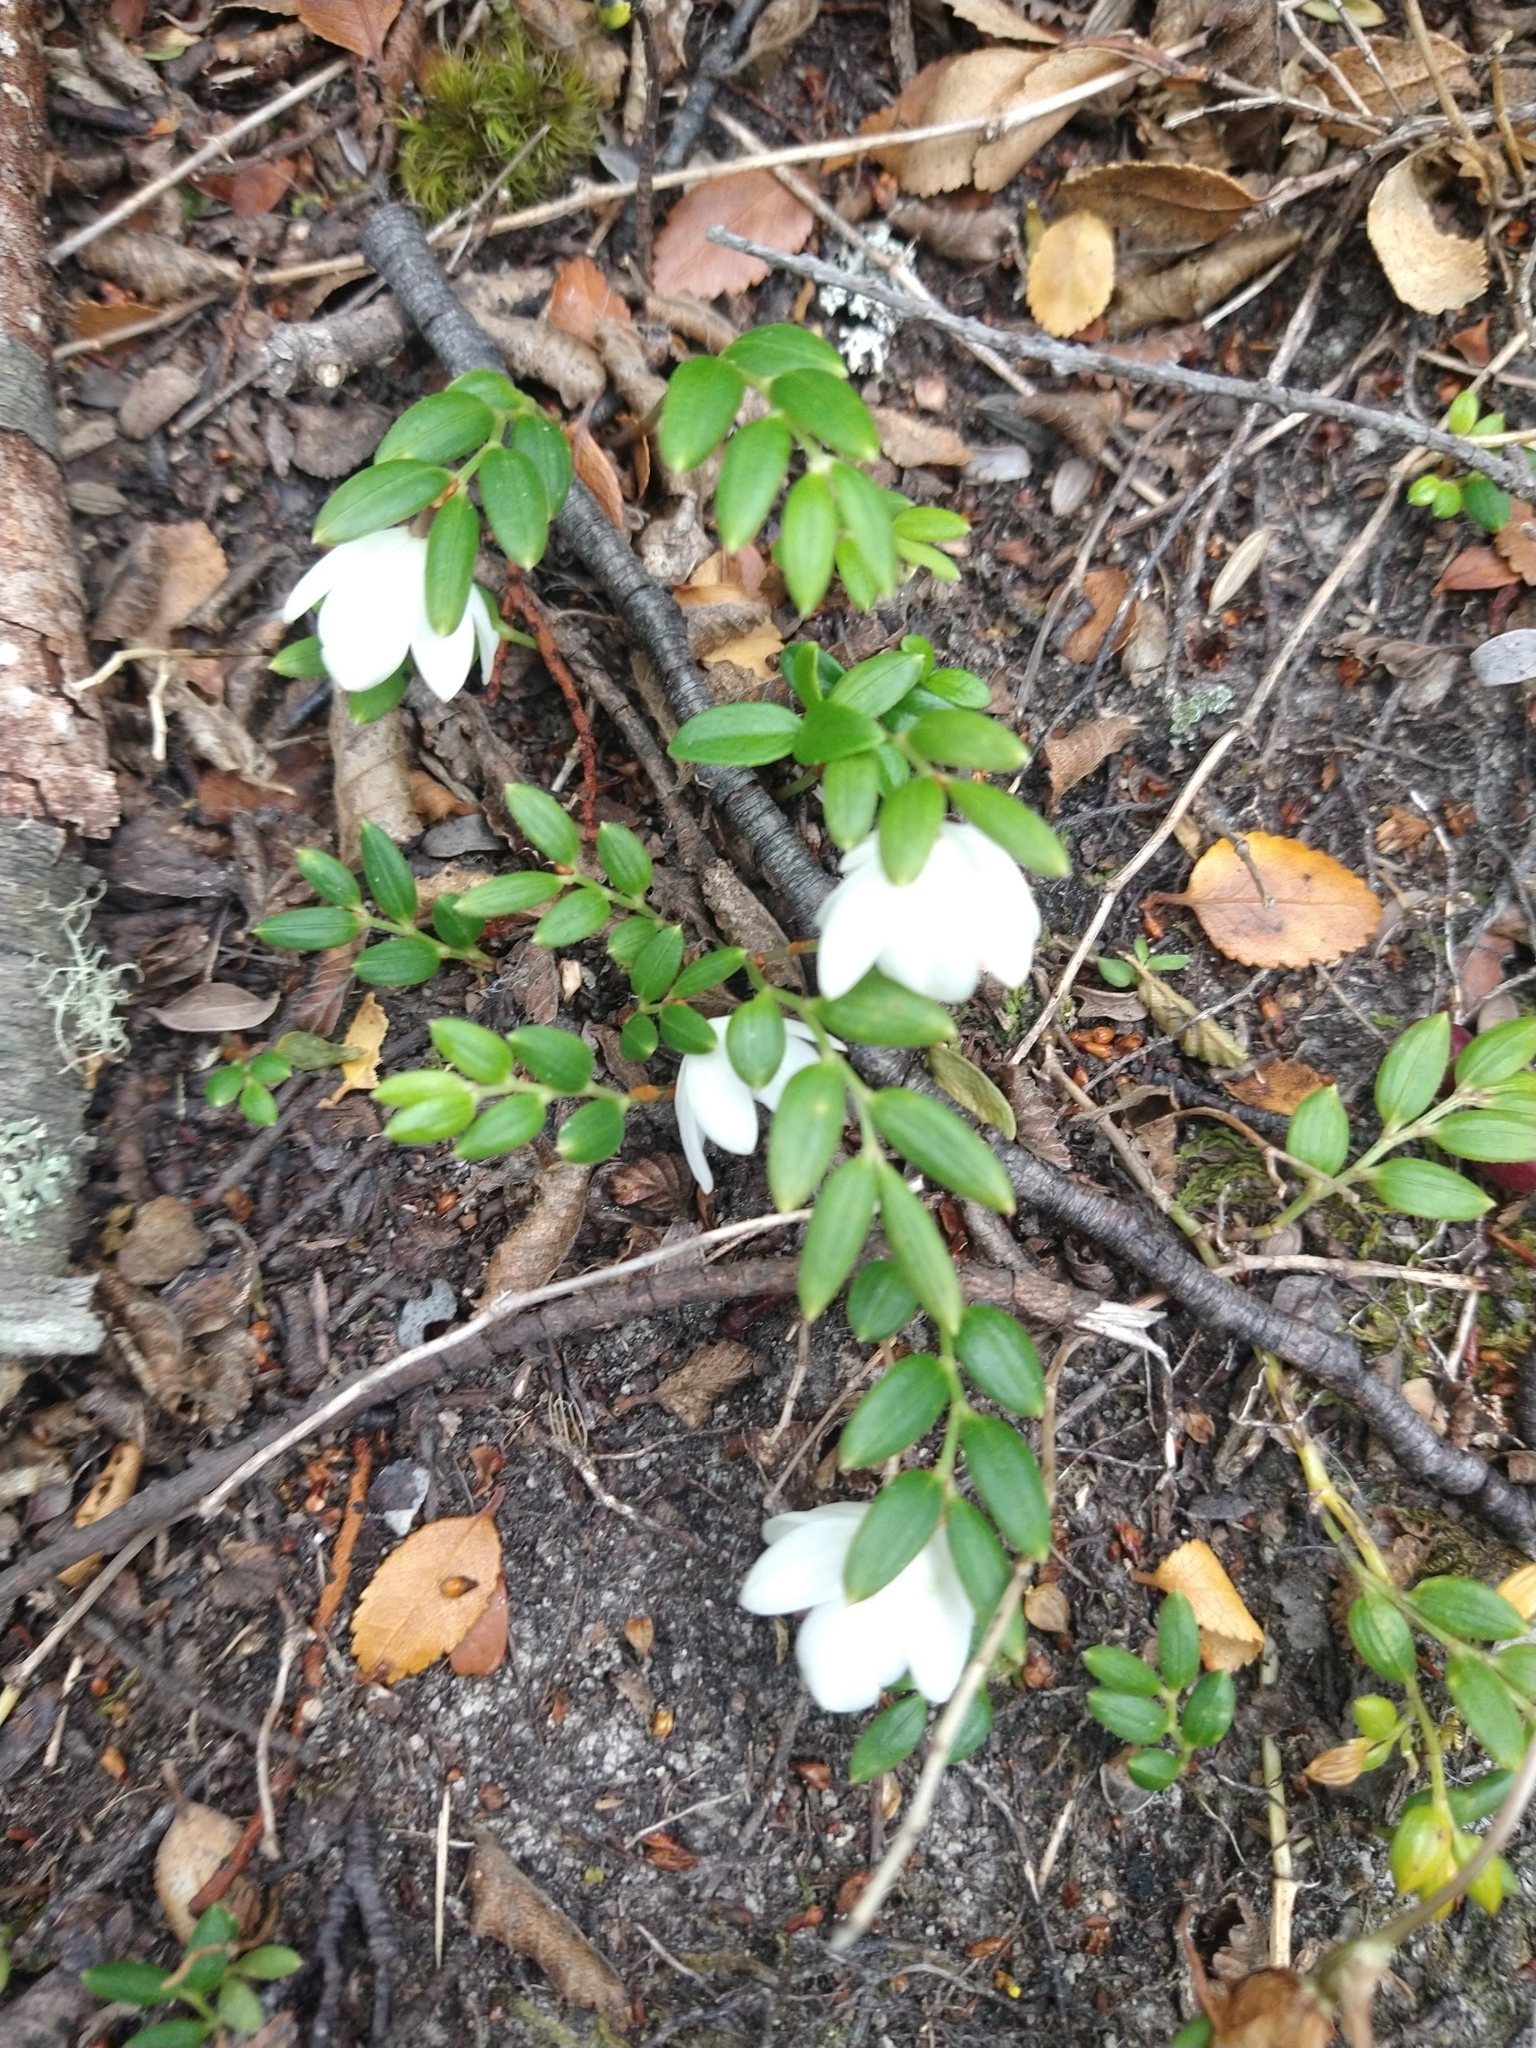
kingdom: Plantae
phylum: Tracheophyta
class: Liliopsida
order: Liliales
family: Alstroemeriaceae
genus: Luzuriaga
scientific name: Luzuriaga marginata
